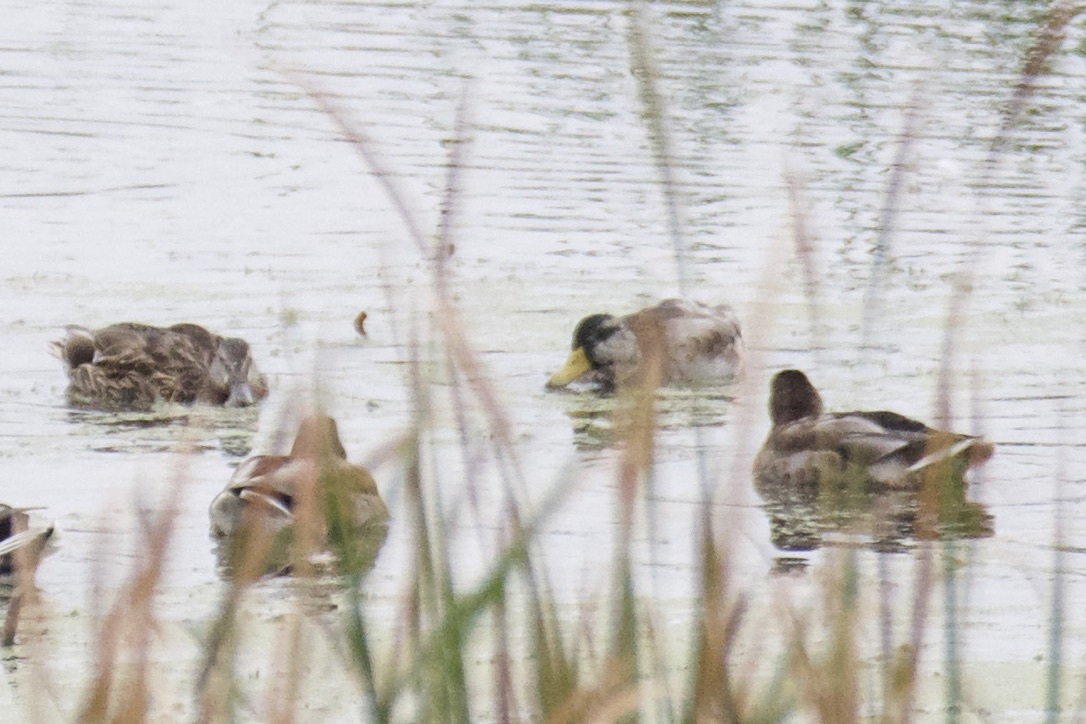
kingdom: Animalia
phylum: Chordata
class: Aves
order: Anseriformes
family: Anatidae
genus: Anas
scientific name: Anas platyrhynchos
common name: Mallard
